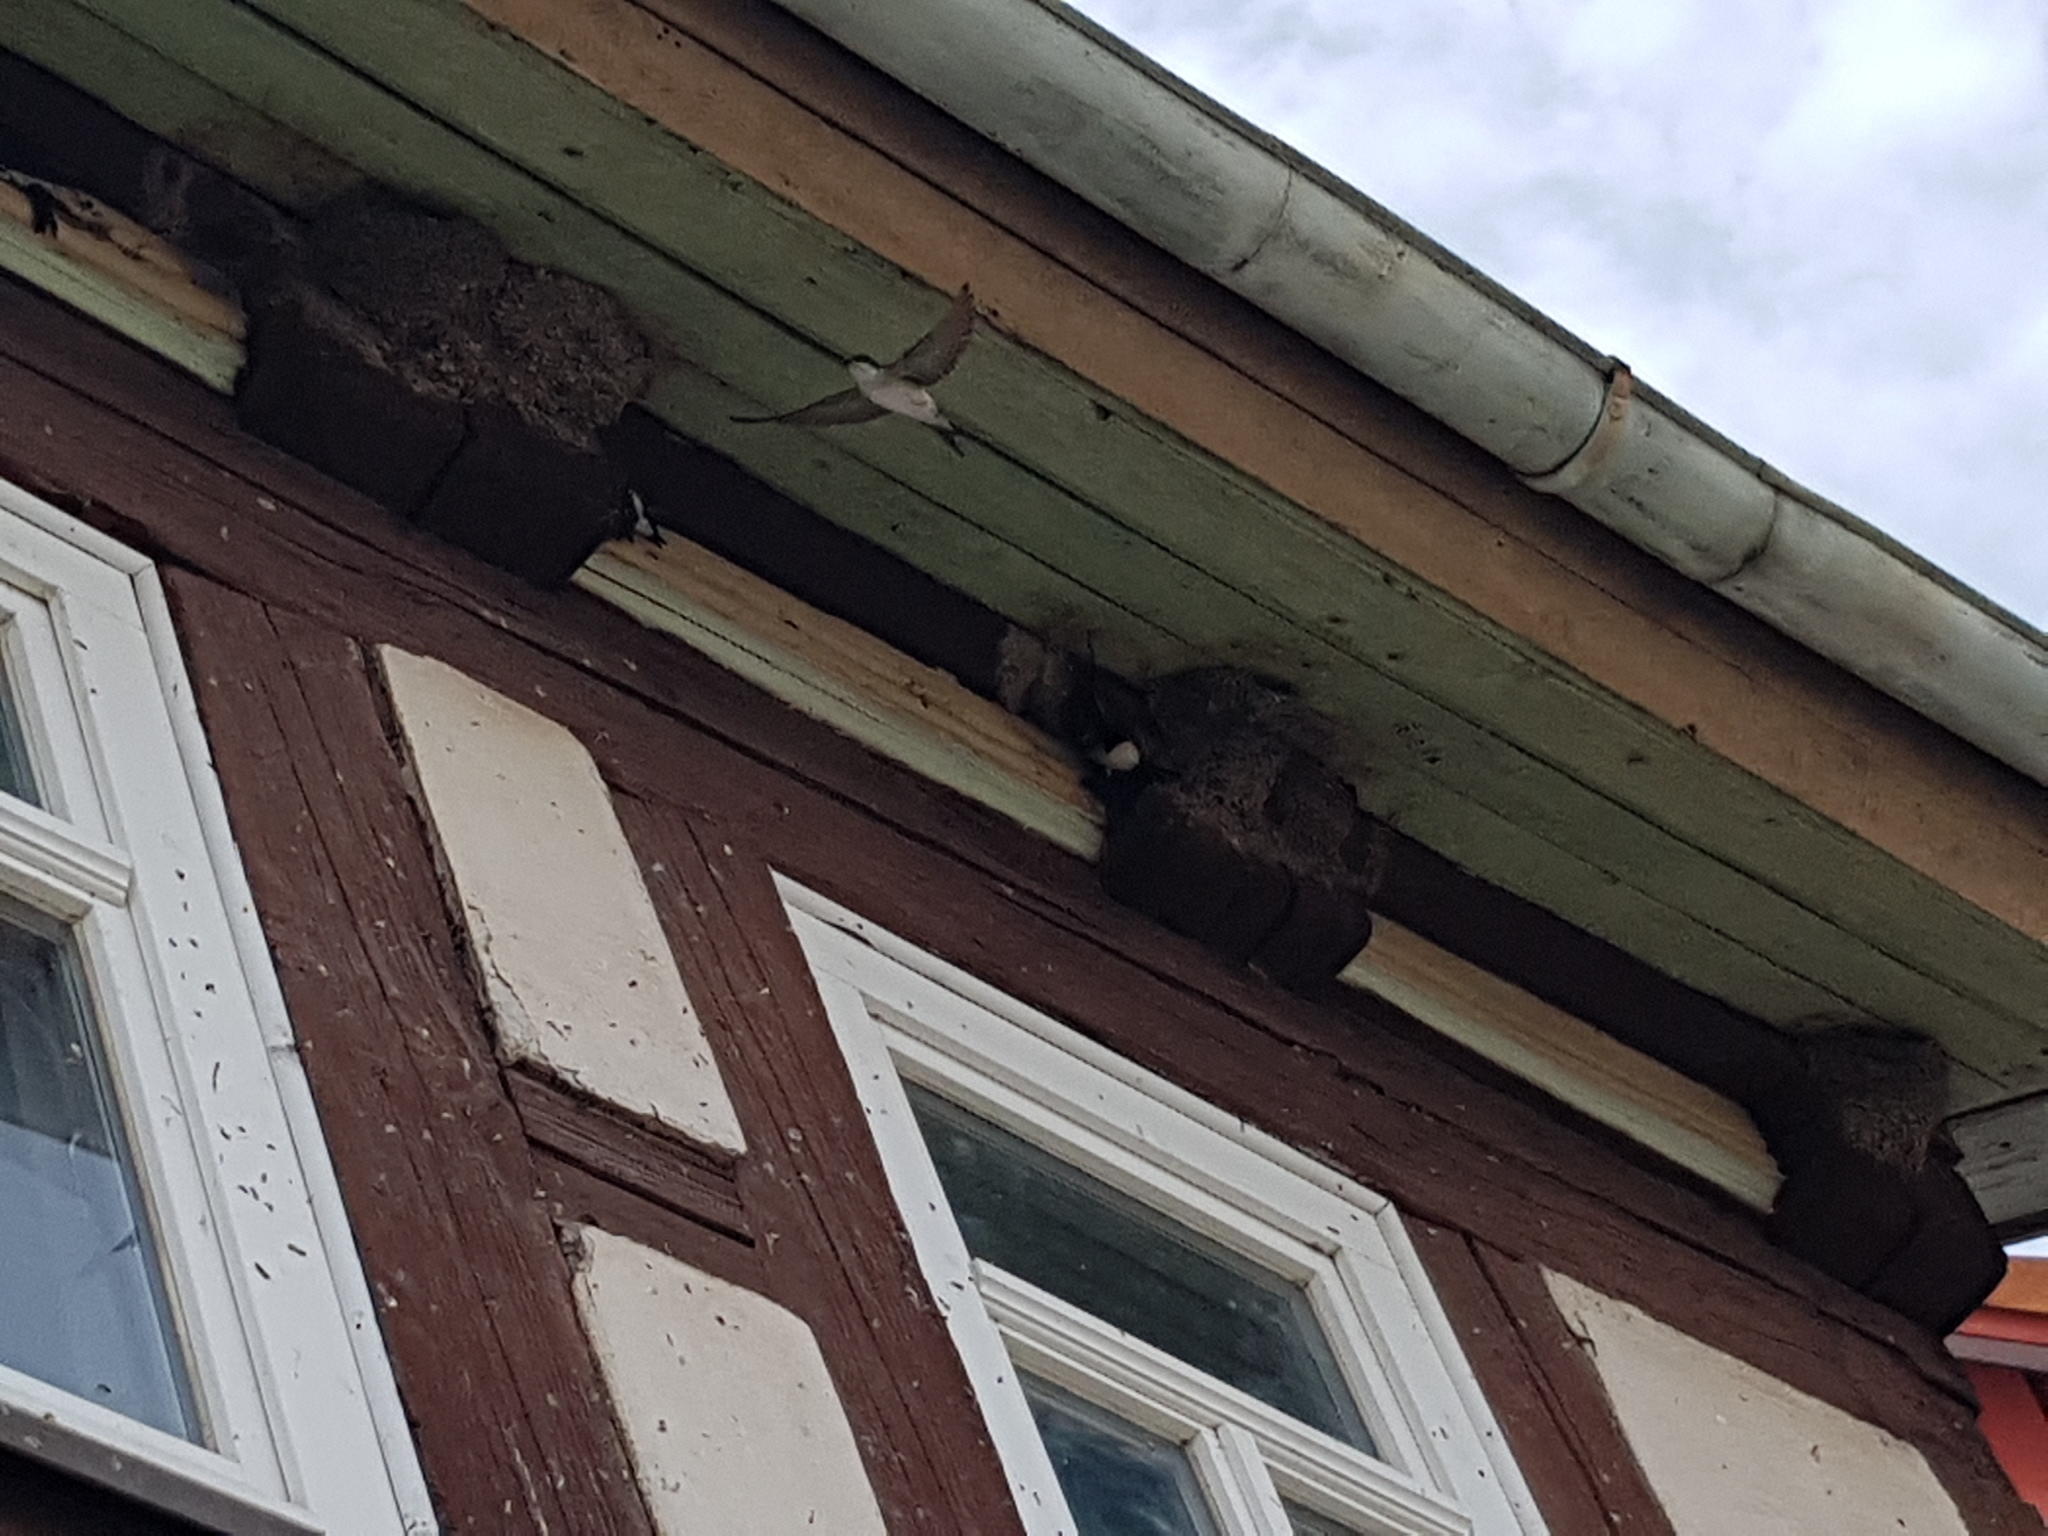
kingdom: Animalia
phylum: Chordata
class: Aves
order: Passeriformes
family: Hirundinidae
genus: Delichon
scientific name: Delichon urbicum
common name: Common house martin
